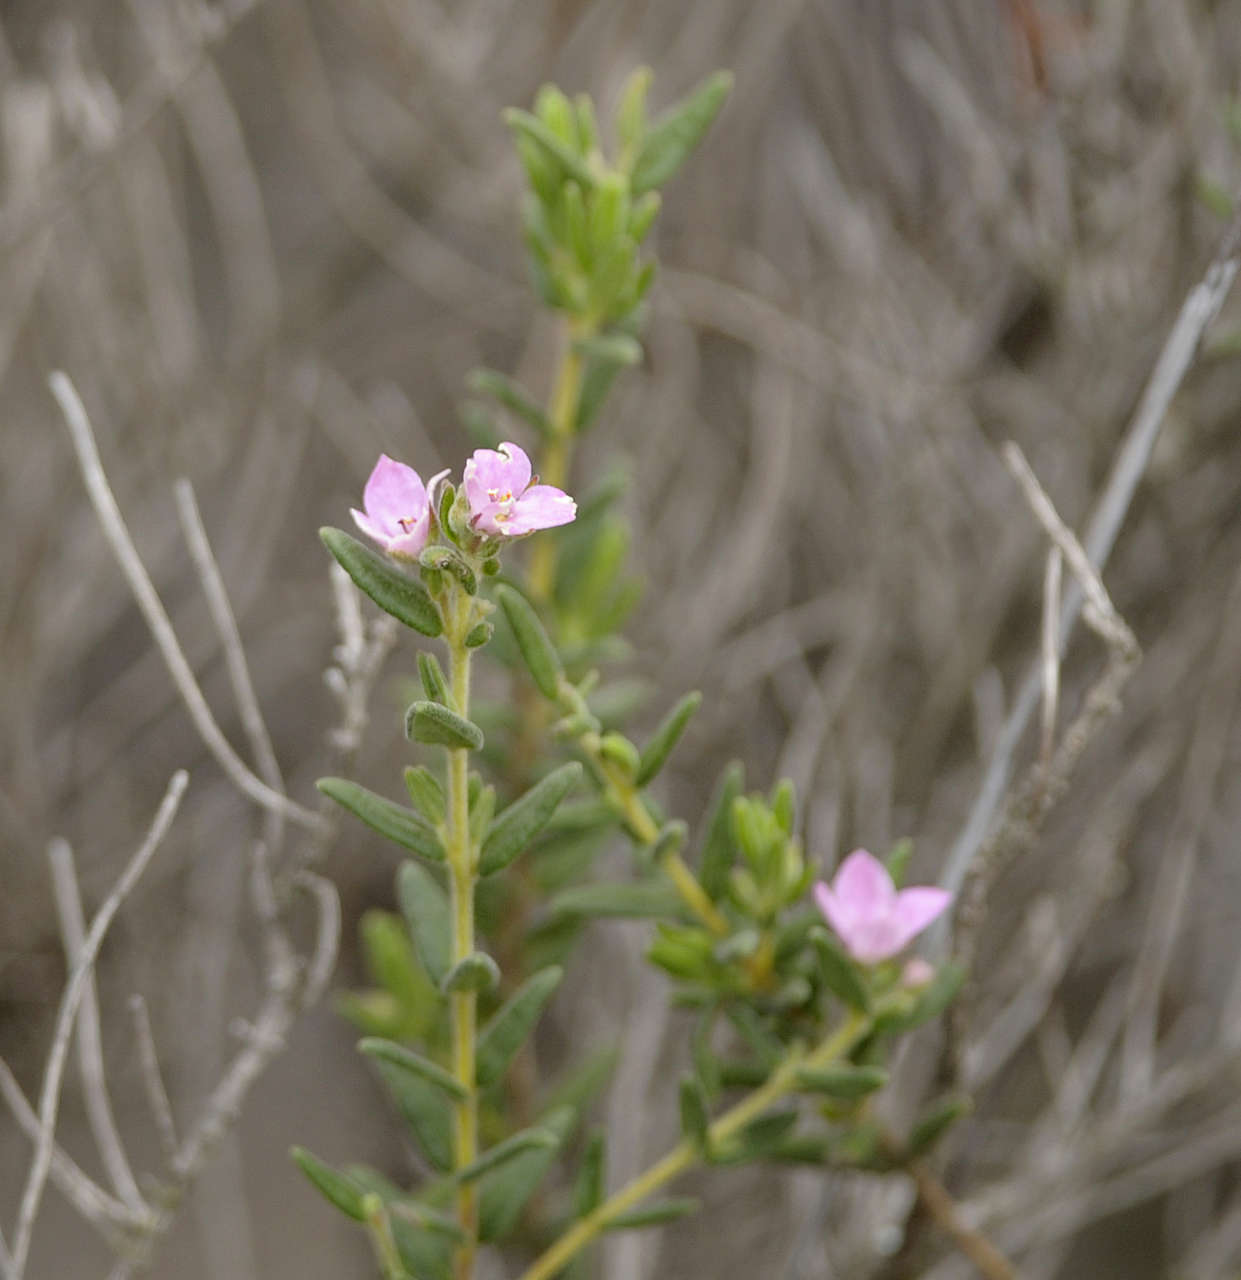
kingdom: Plantae
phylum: Tracheophyta
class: Magnoliopsida
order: Sapindales
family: Rutaceae
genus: Zieria
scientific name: Zieria veronicea
